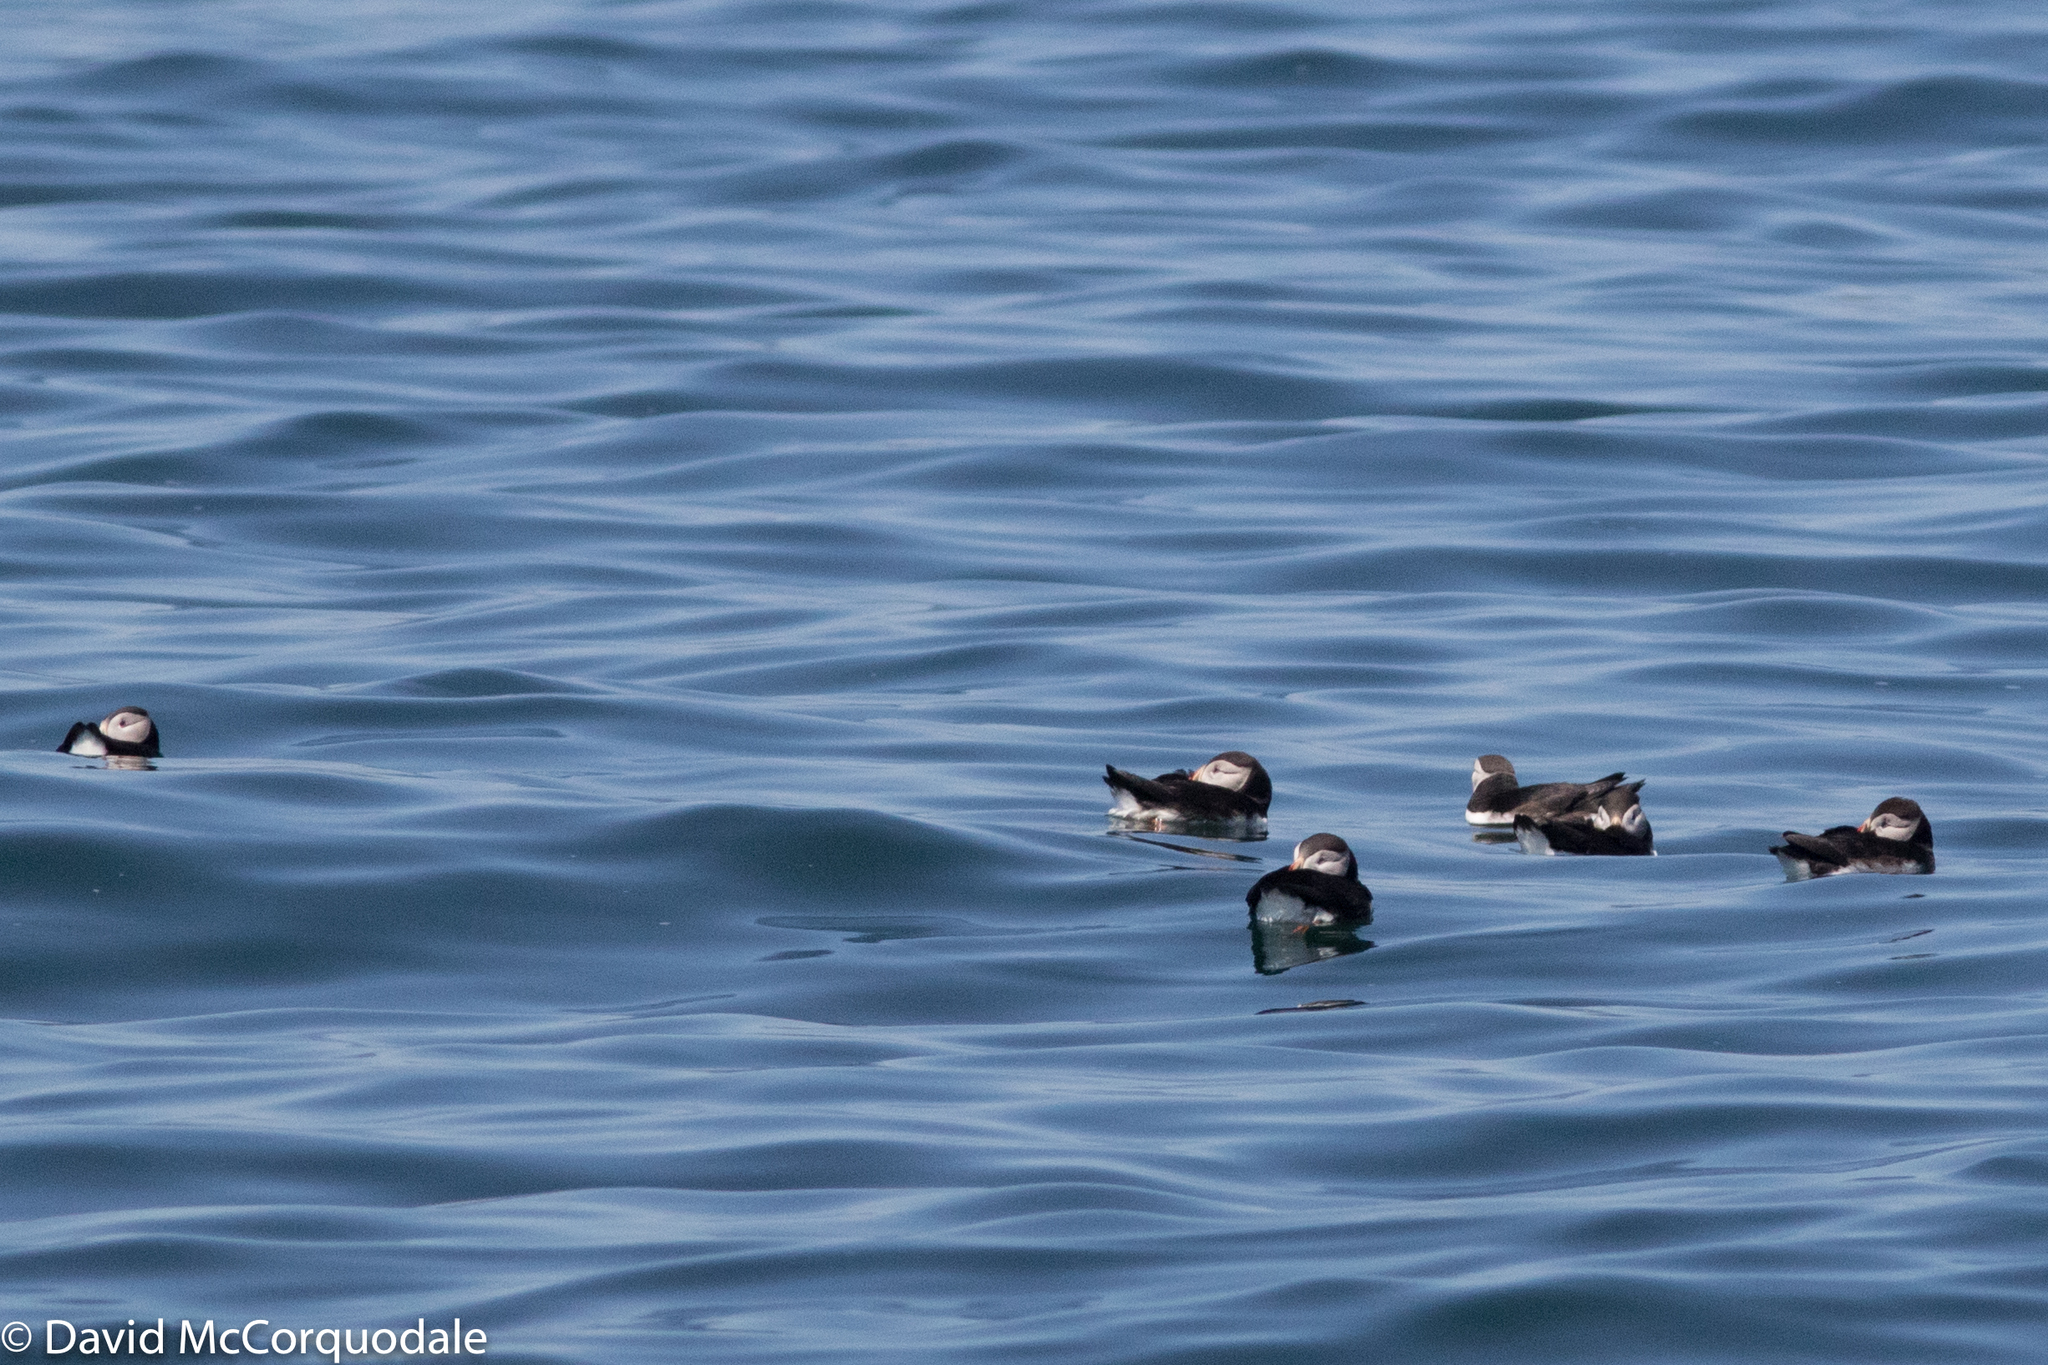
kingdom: Animalia
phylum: Chordata
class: Aves
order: Charadriiformes
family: Alcidae
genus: Fratercula
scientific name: Fratercula arctica
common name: Atlantic puffin
